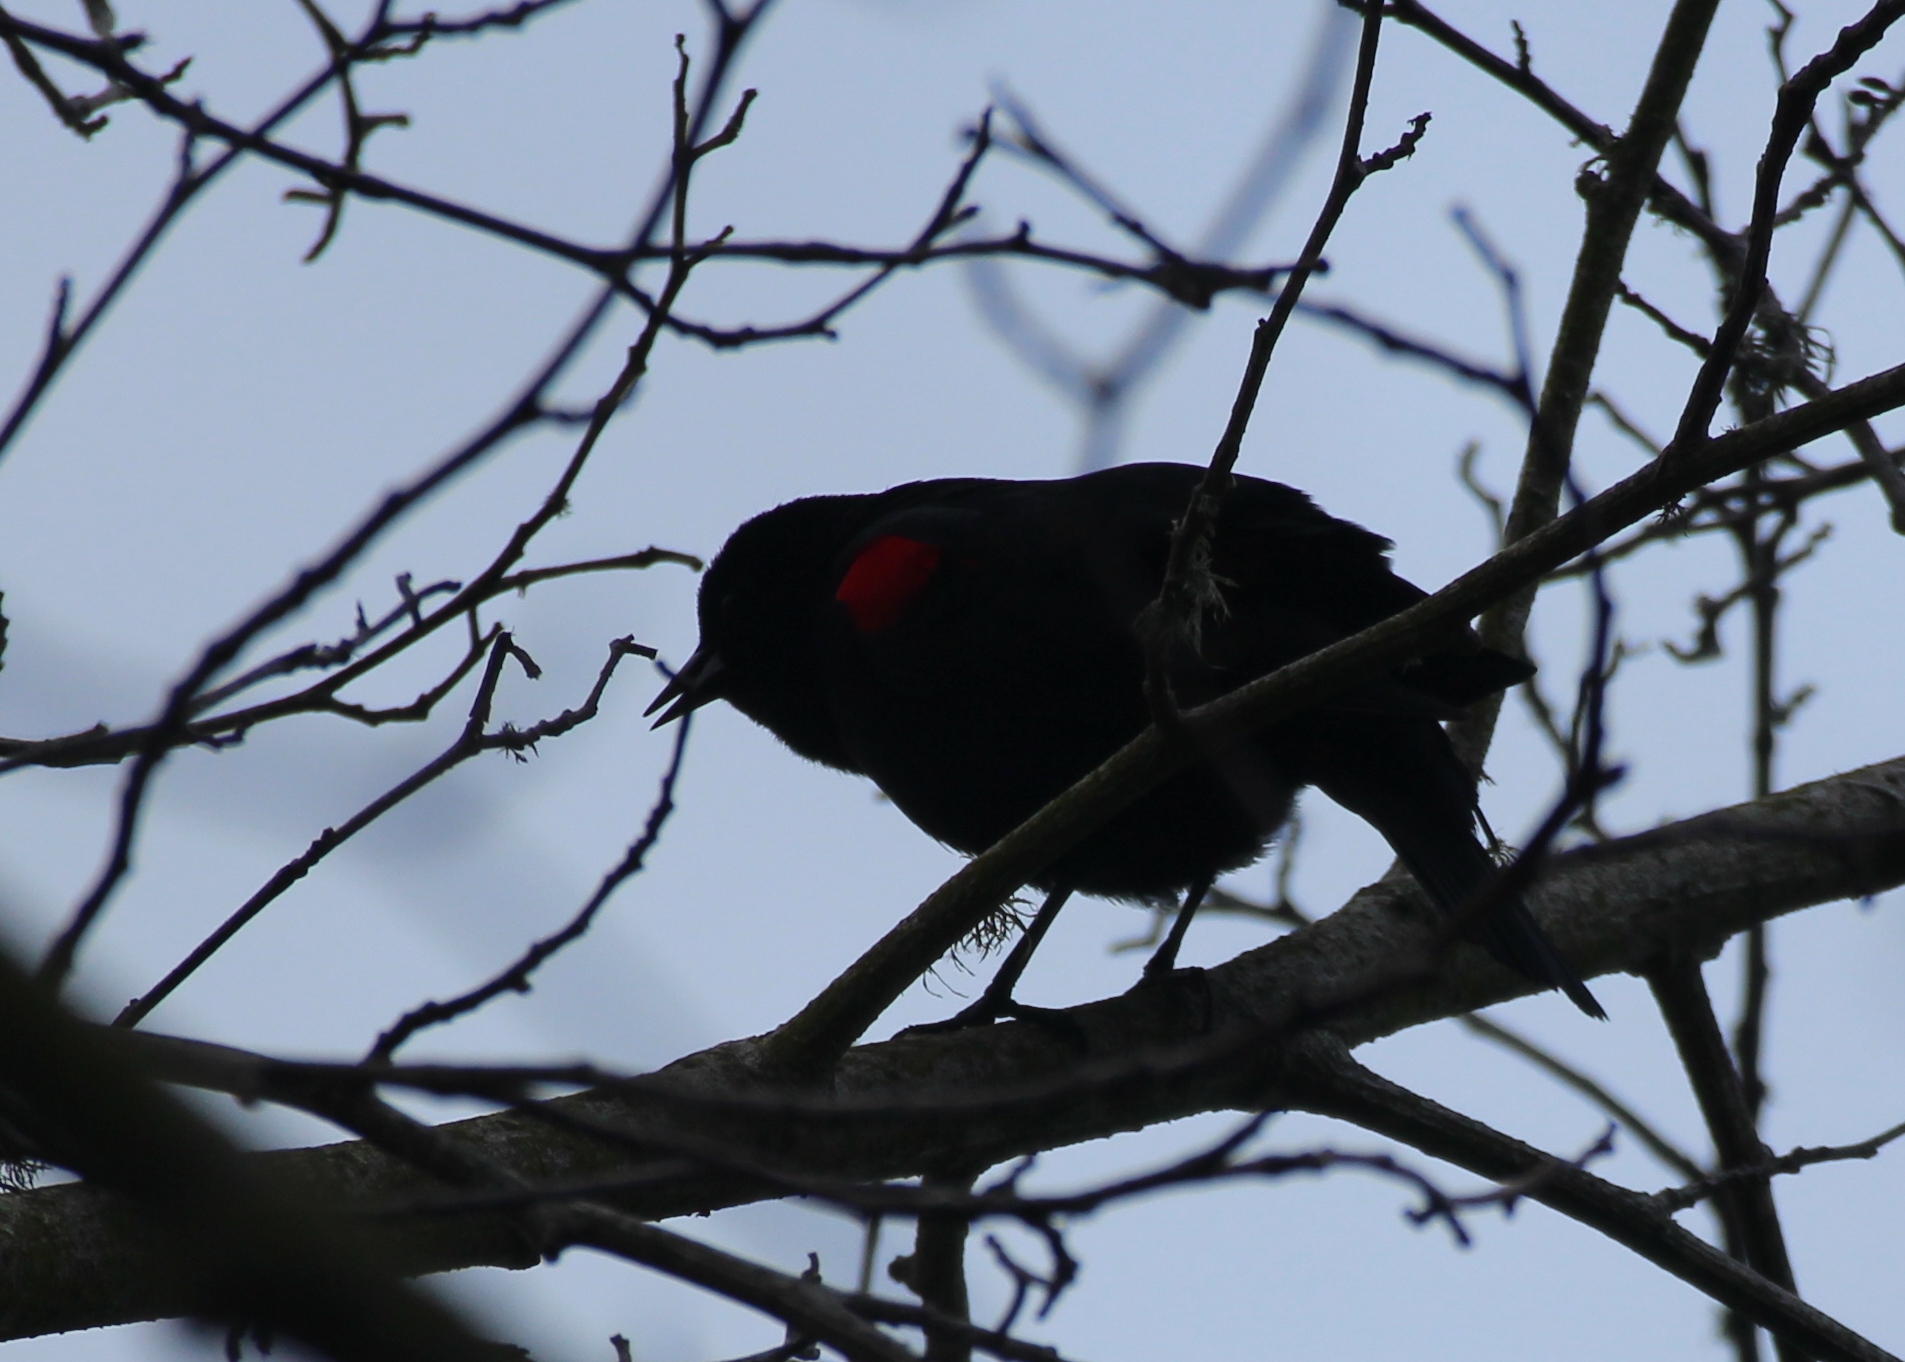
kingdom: Animalia
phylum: Chordata
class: Aves
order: Passeriformes
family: Icteridae
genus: Agelaius
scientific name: Agelaius phoeniceus
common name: Red-winged blackbird
